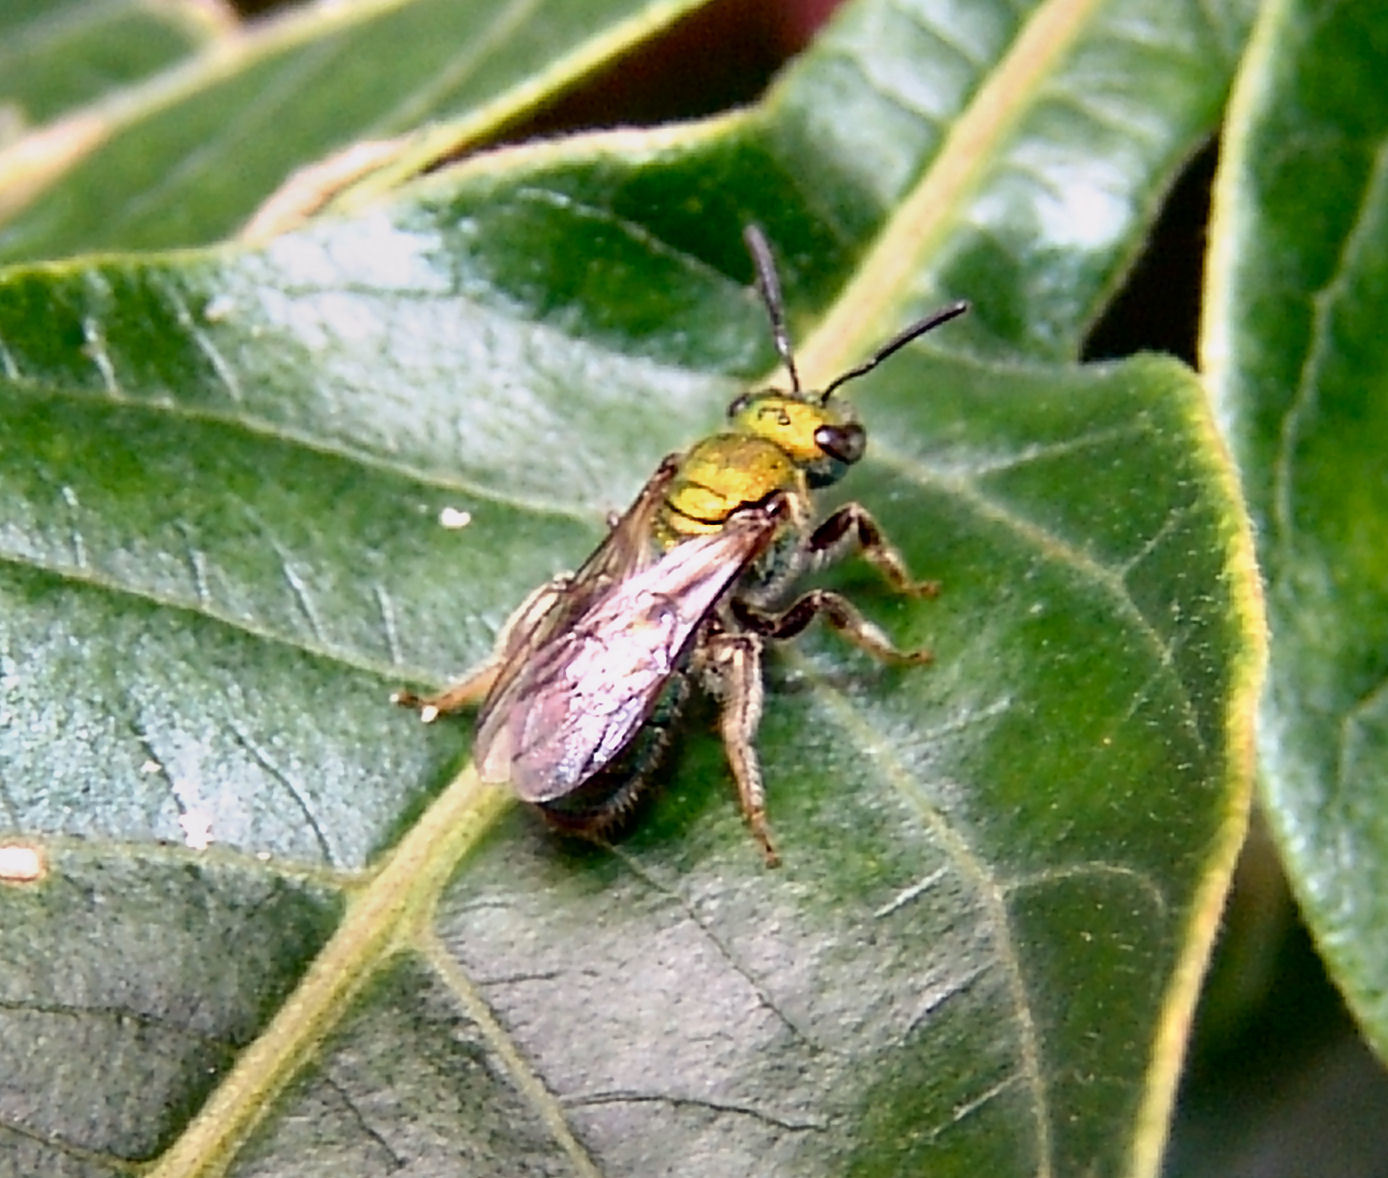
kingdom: Animalia
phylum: Arthropoda
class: Insecta
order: Hymenoptera
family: Halictidae
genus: Augochlora
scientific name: Augochlora pura
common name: Pure green sweat bee
